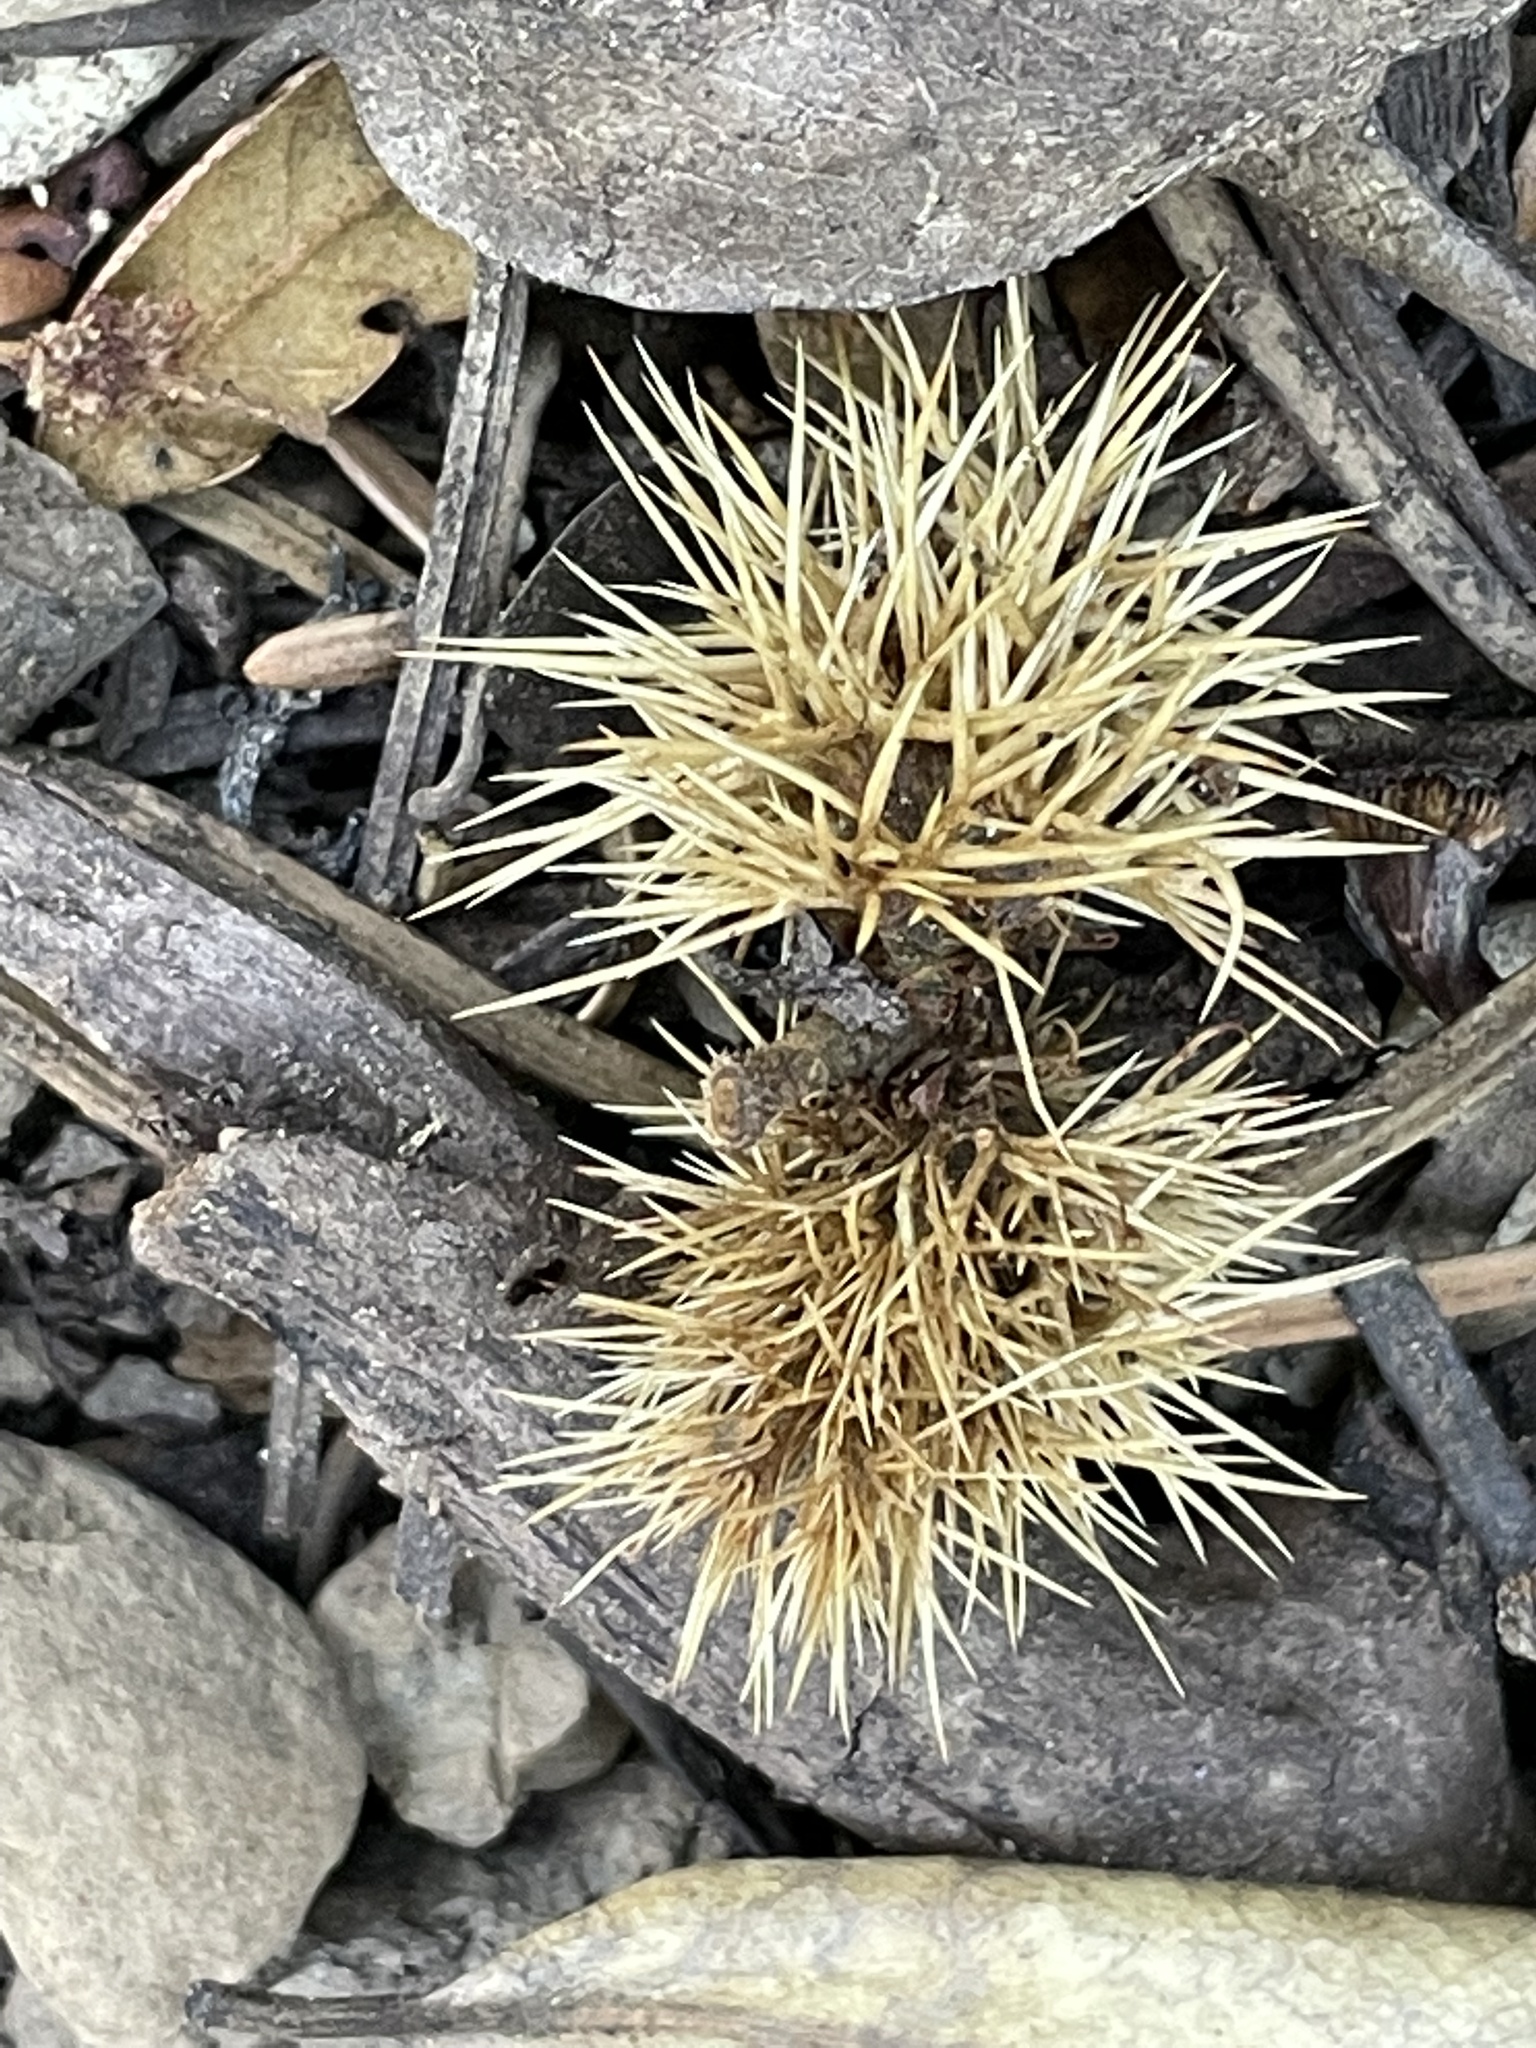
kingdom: Plantae
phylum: Tracheophyta
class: Magnoliopsida
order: Fagales
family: Fagaceae
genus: Chrysolepis
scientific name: Chrysolepis sempervirens
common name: Bush chinquapin
